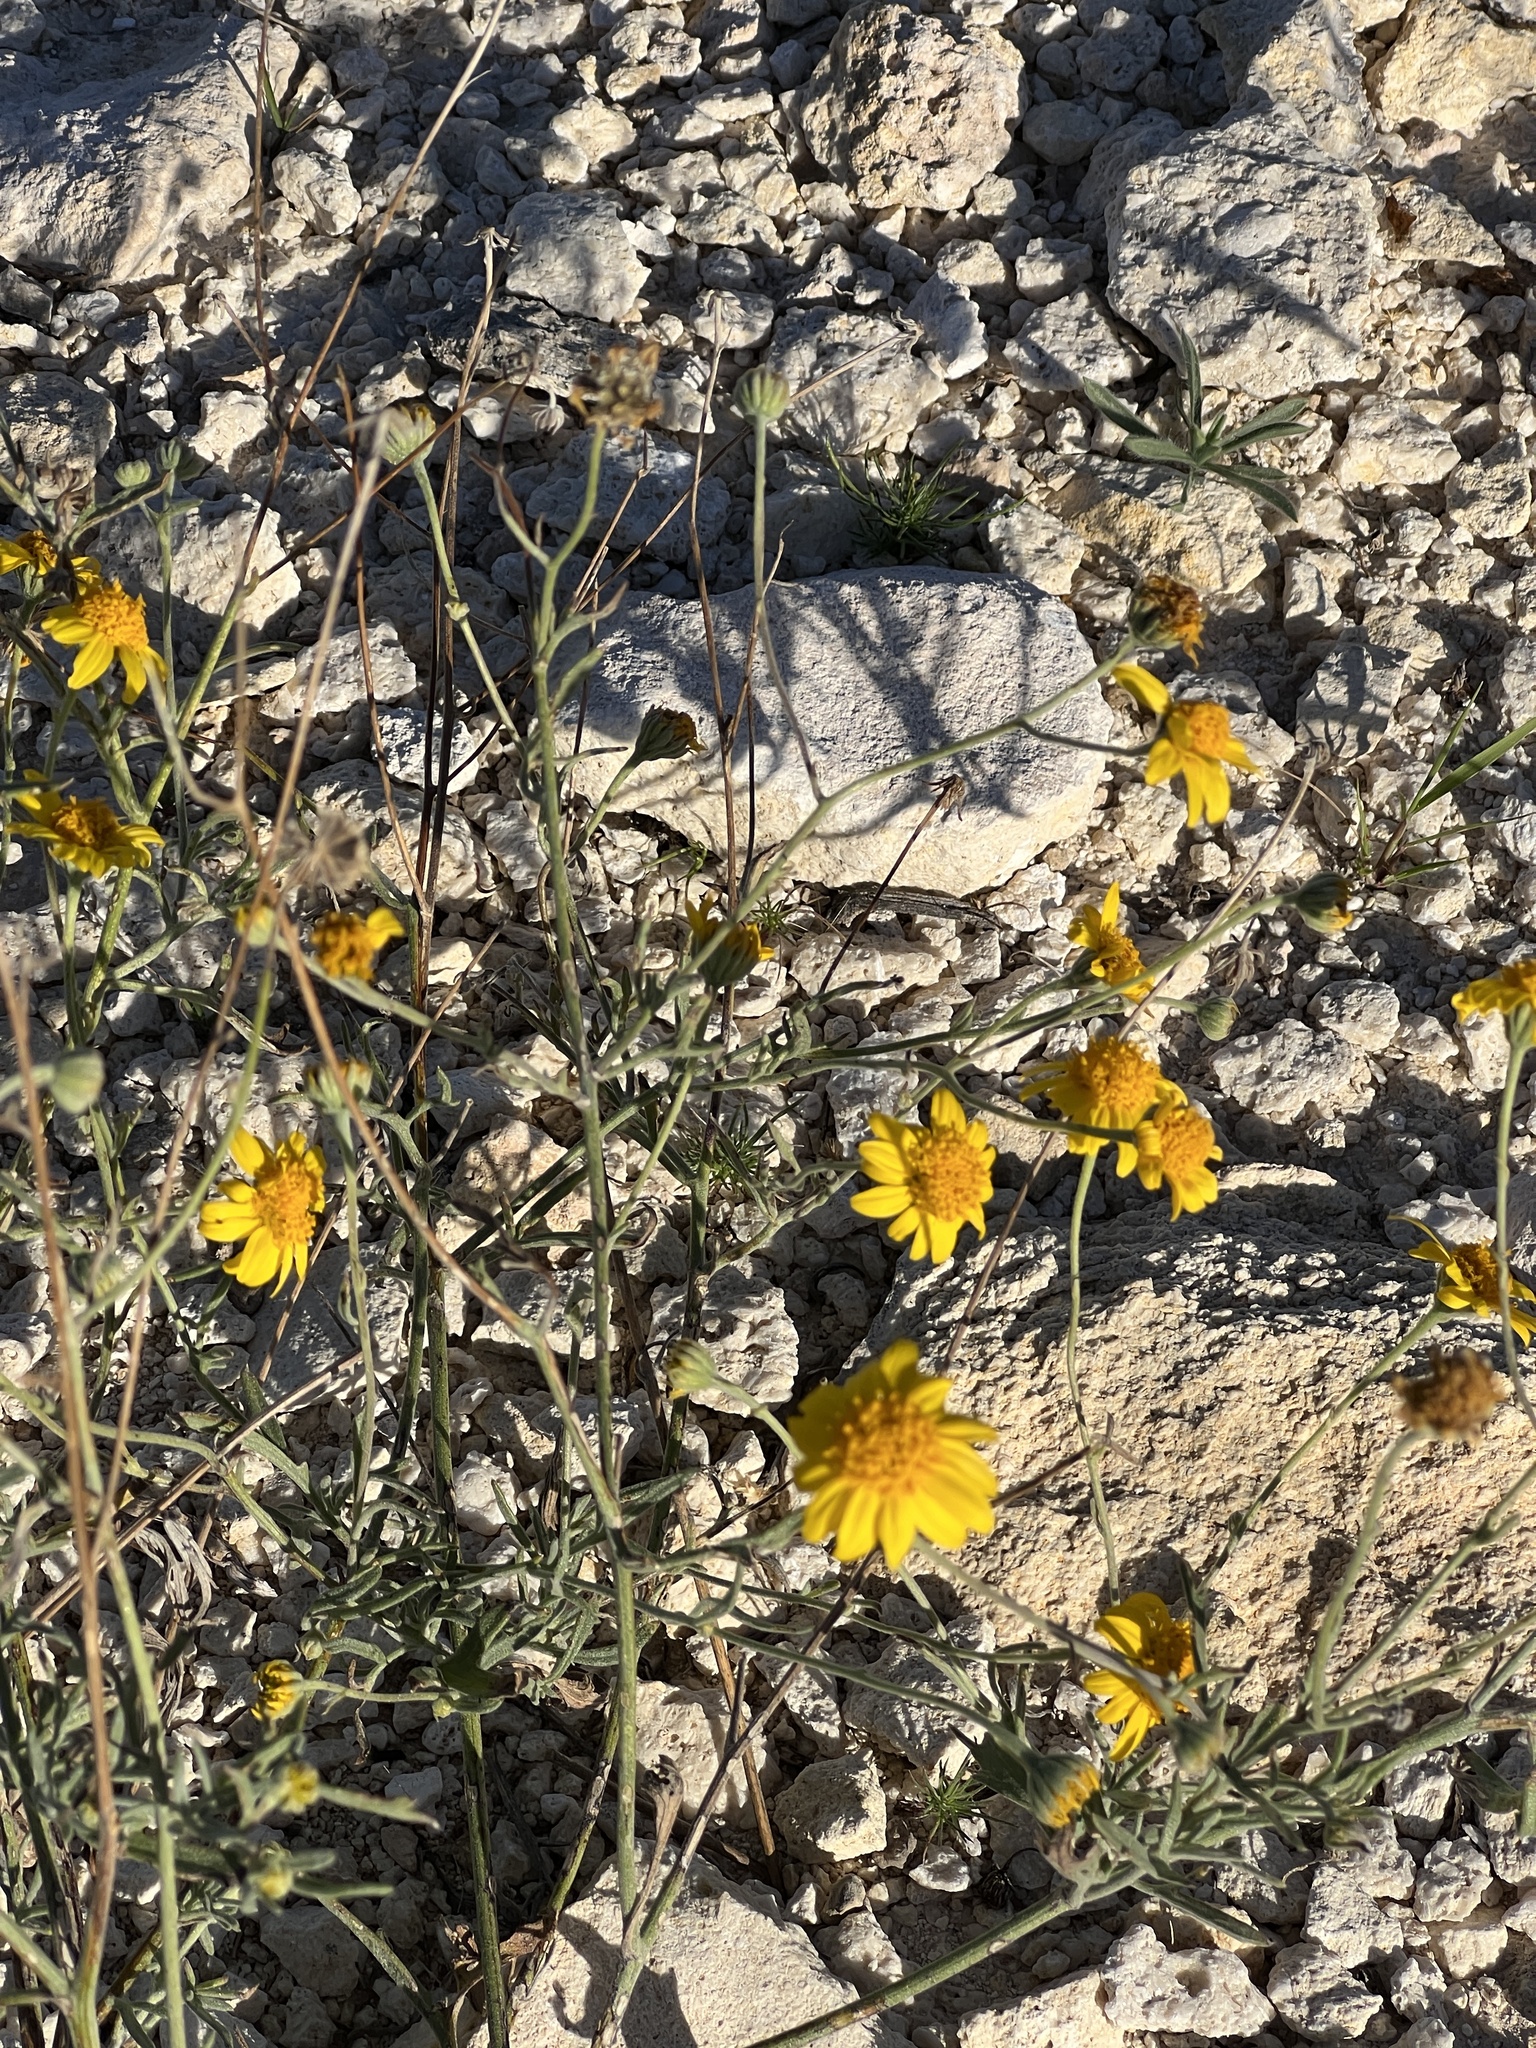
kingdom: Plantae
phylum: Tracheophyta
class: Magnoliopsida
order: Asterales
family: Asteraceae
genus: Thymophylla
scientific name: Thymophylla pentachaeta
